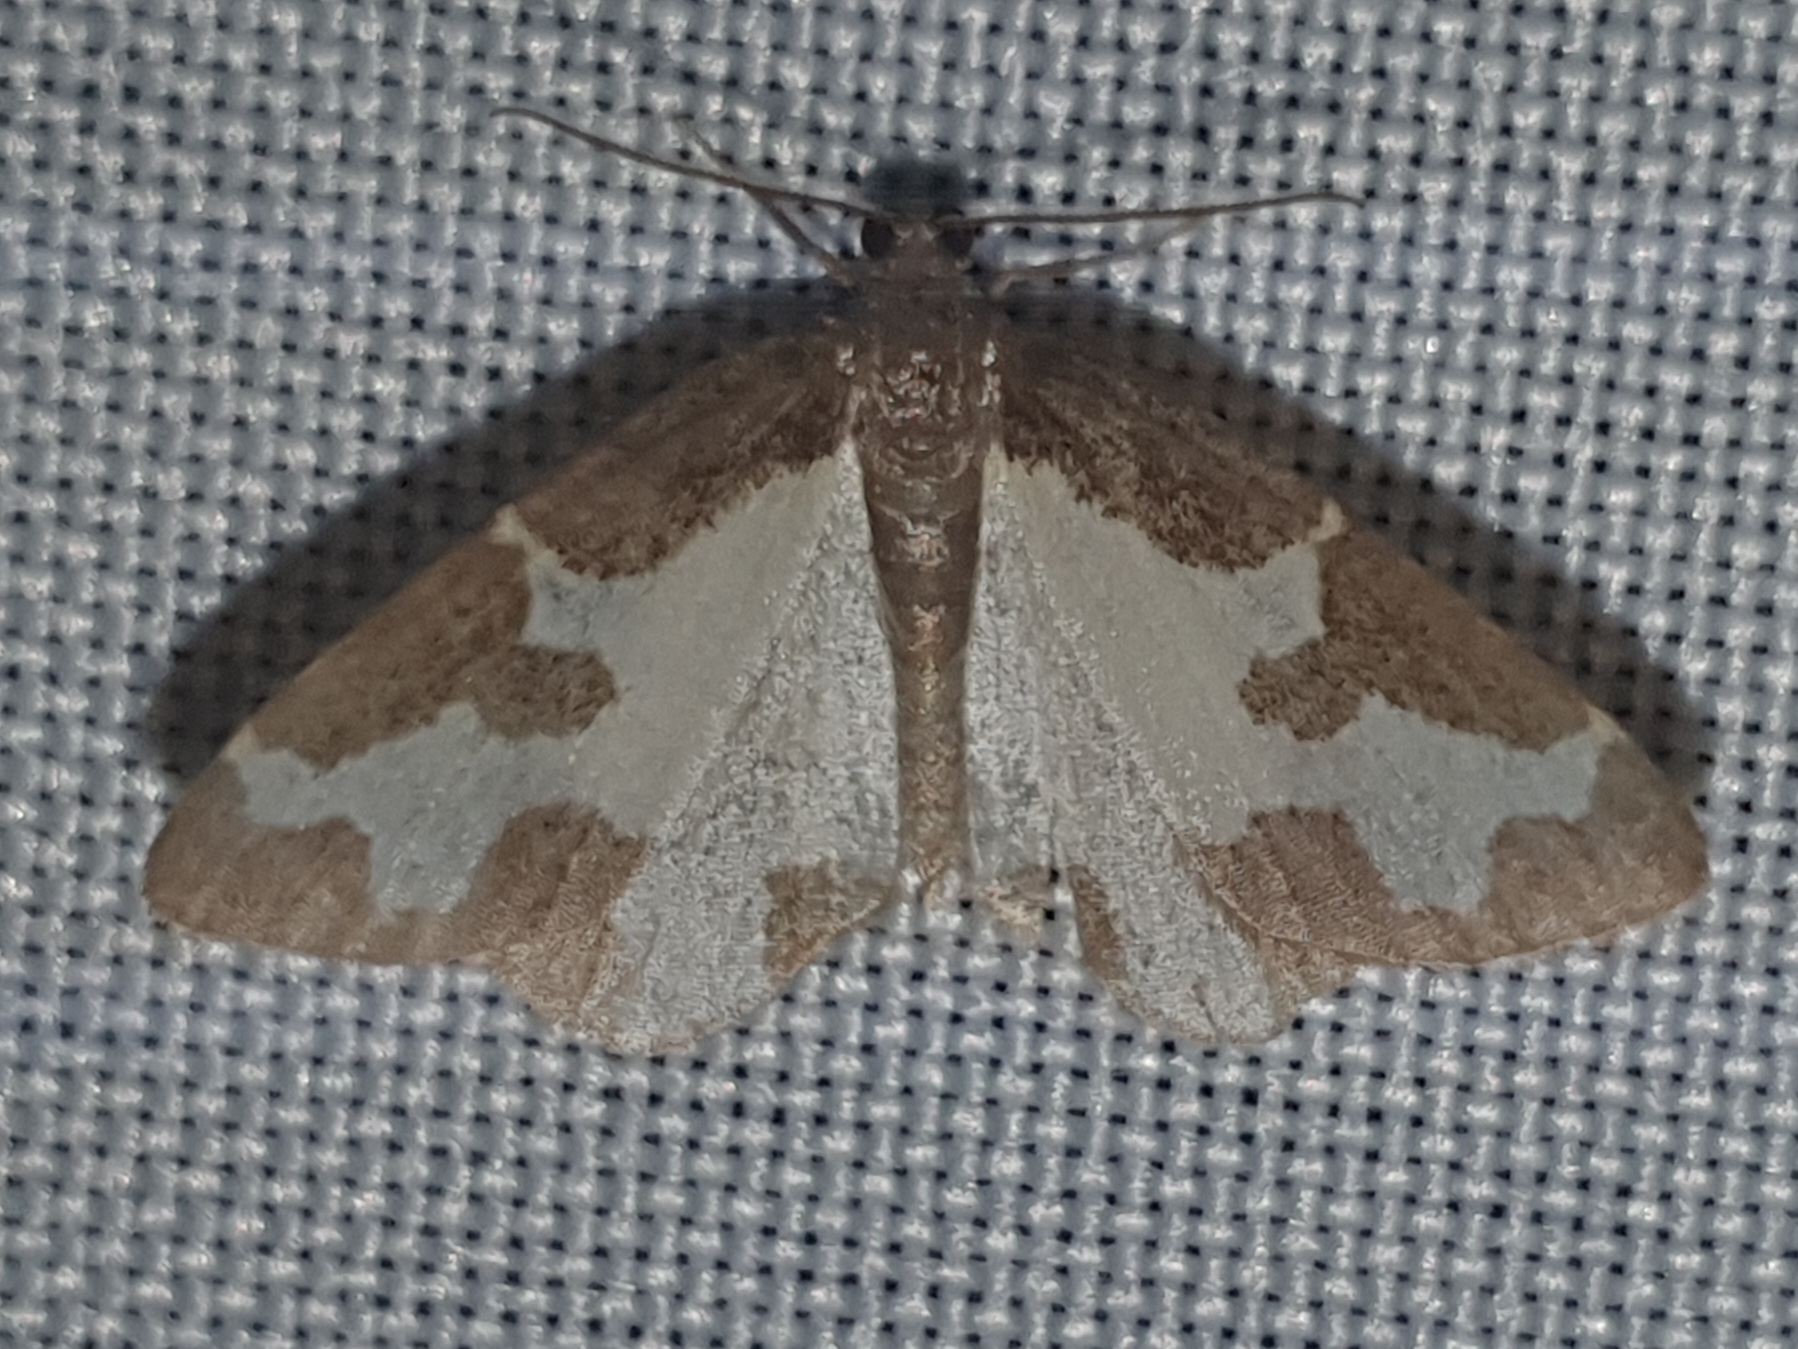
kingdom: Animalia
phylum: Arthropoda
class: Insecta
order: Lepidoptera
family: Geometridae
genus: Lomaspilis
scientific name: Lomaspilis marginata
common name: Clouded border
